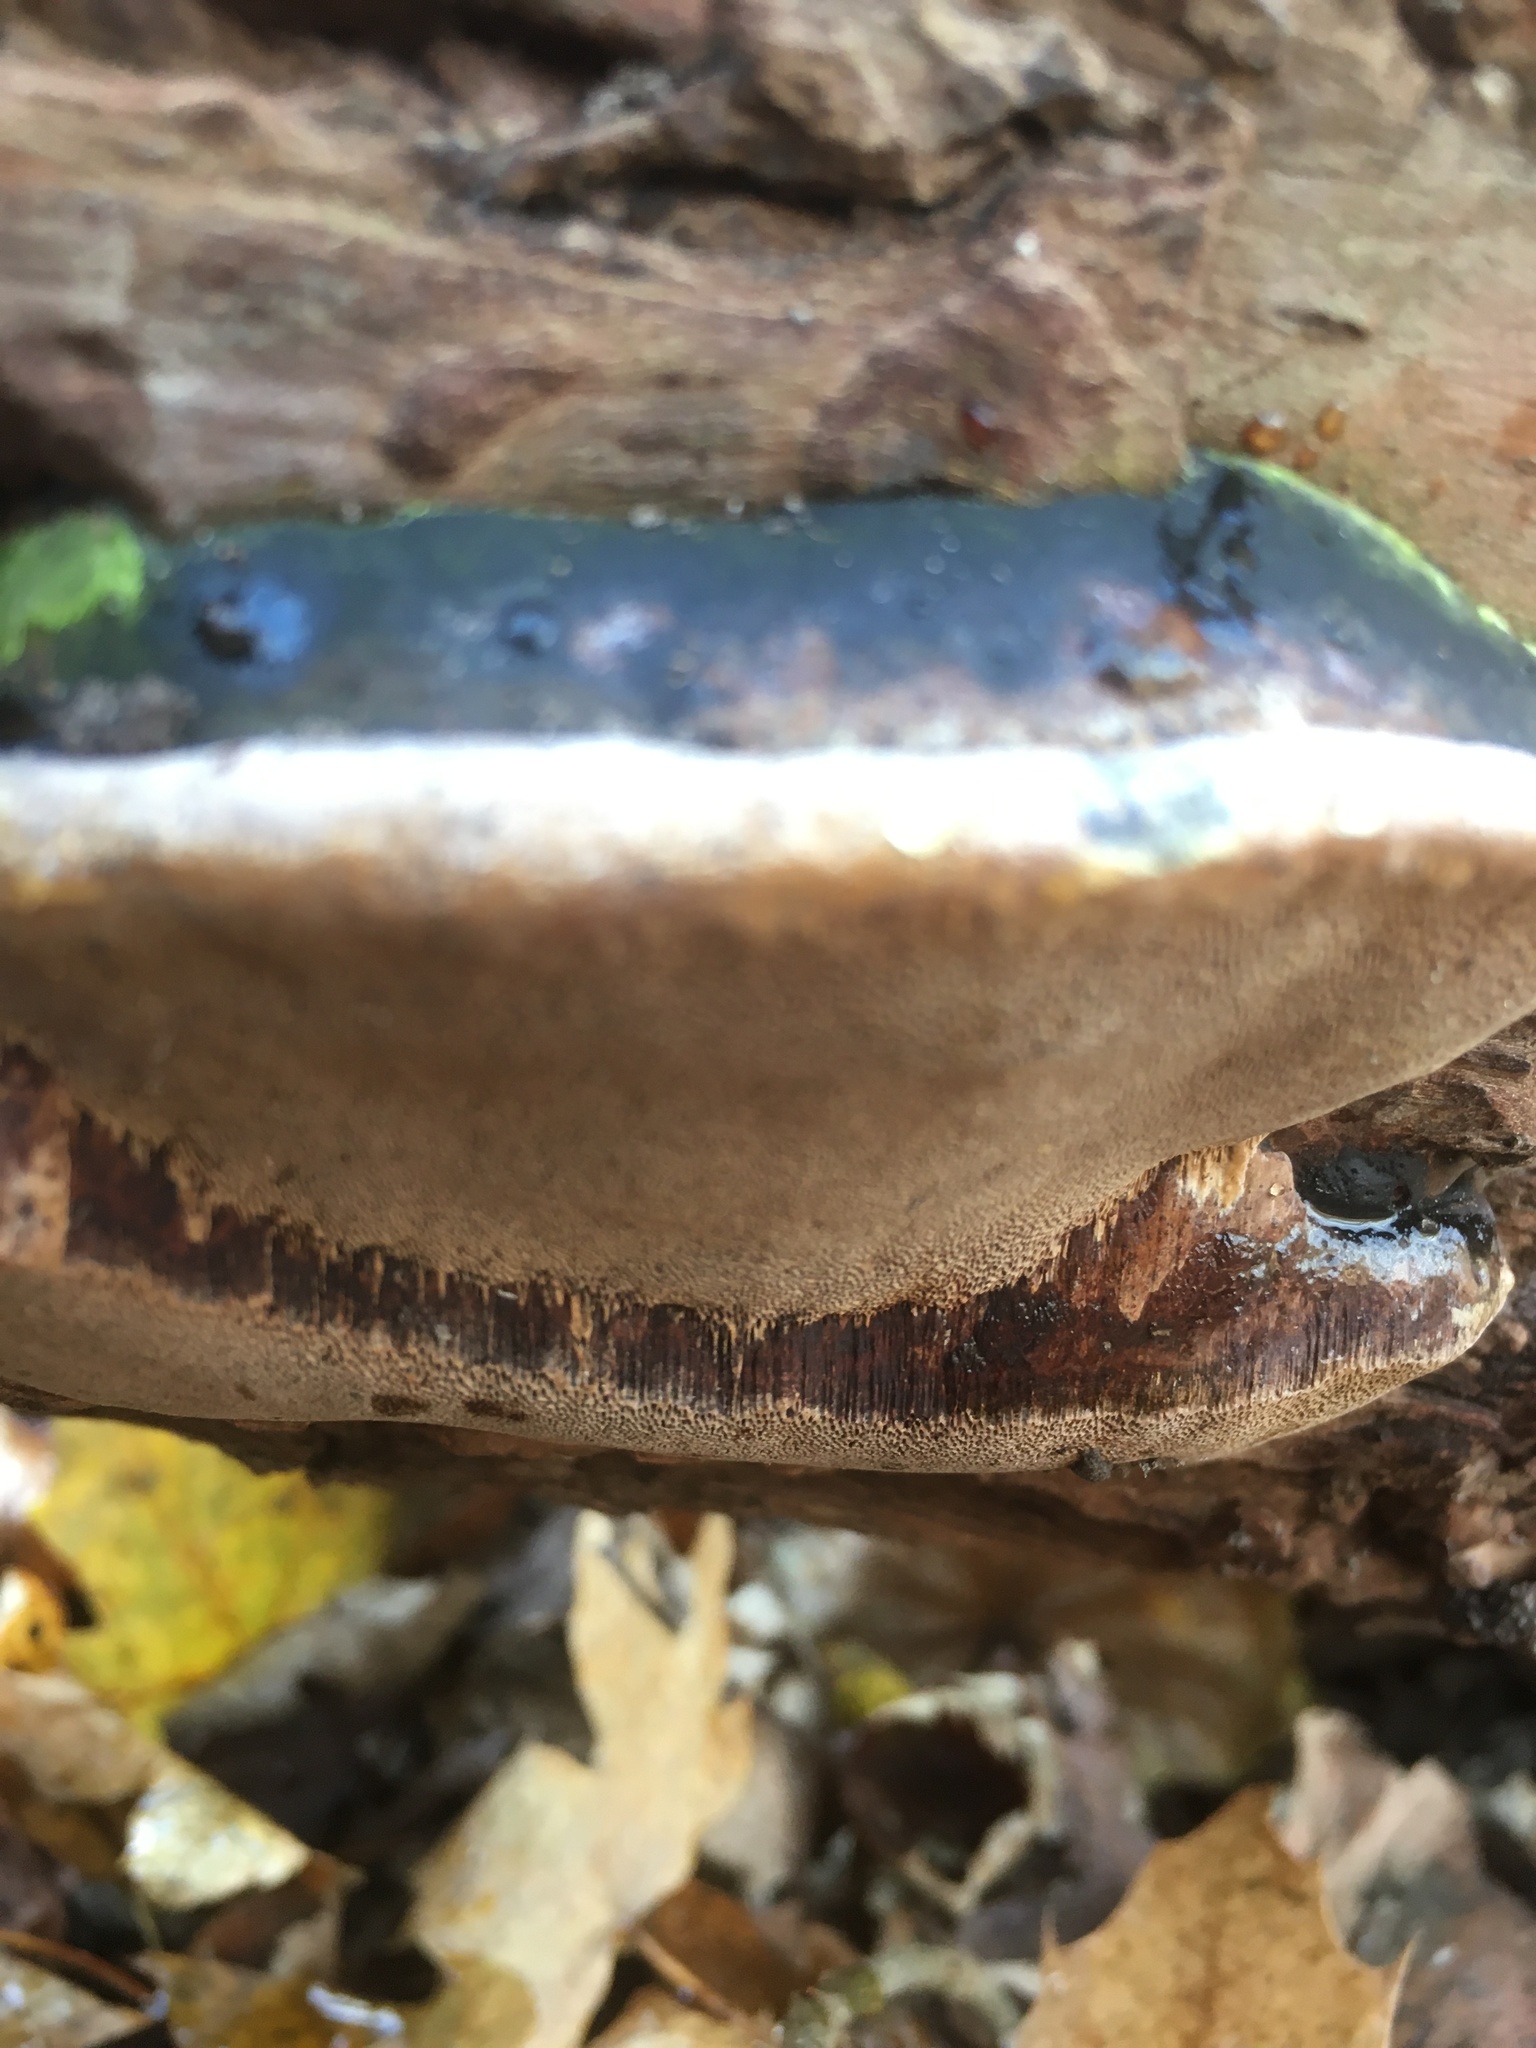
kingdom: Fungi
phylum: Basidiomycota
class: Agaricomycetes
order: Hymenochaetales
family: Hymenochaetaceae
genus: Phellinus
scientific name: Phellinus igniarius
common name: Willow bracket
